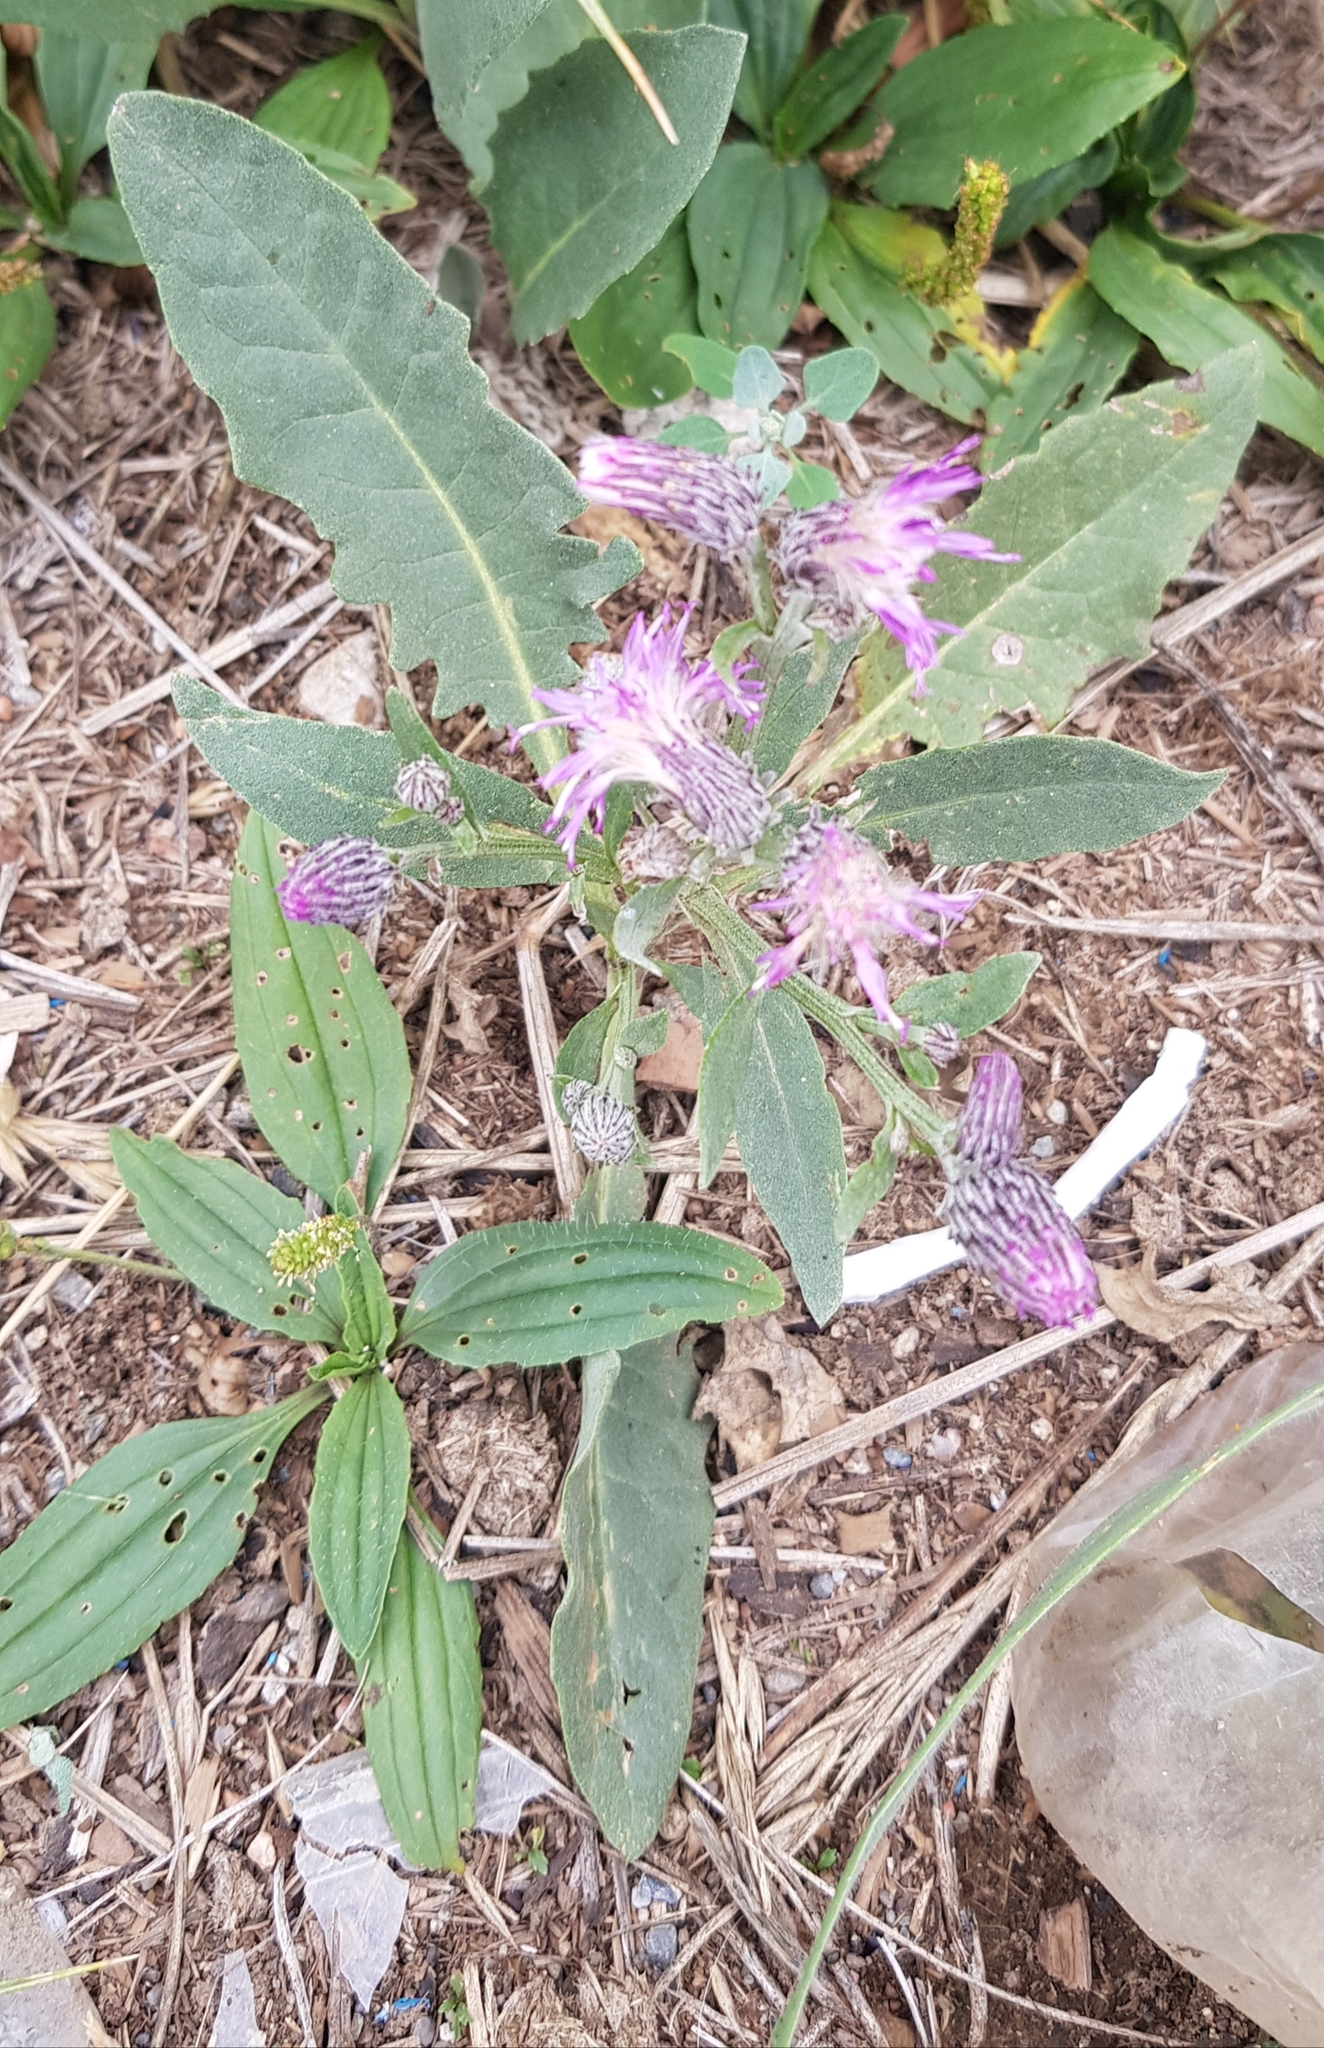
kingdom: Plantae
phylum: Tracheophyta
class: Magnoliopsida
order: Asterales
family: Asteraceae
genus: Saussurea
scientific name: Saussurea amara
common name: Alberta sawwort
